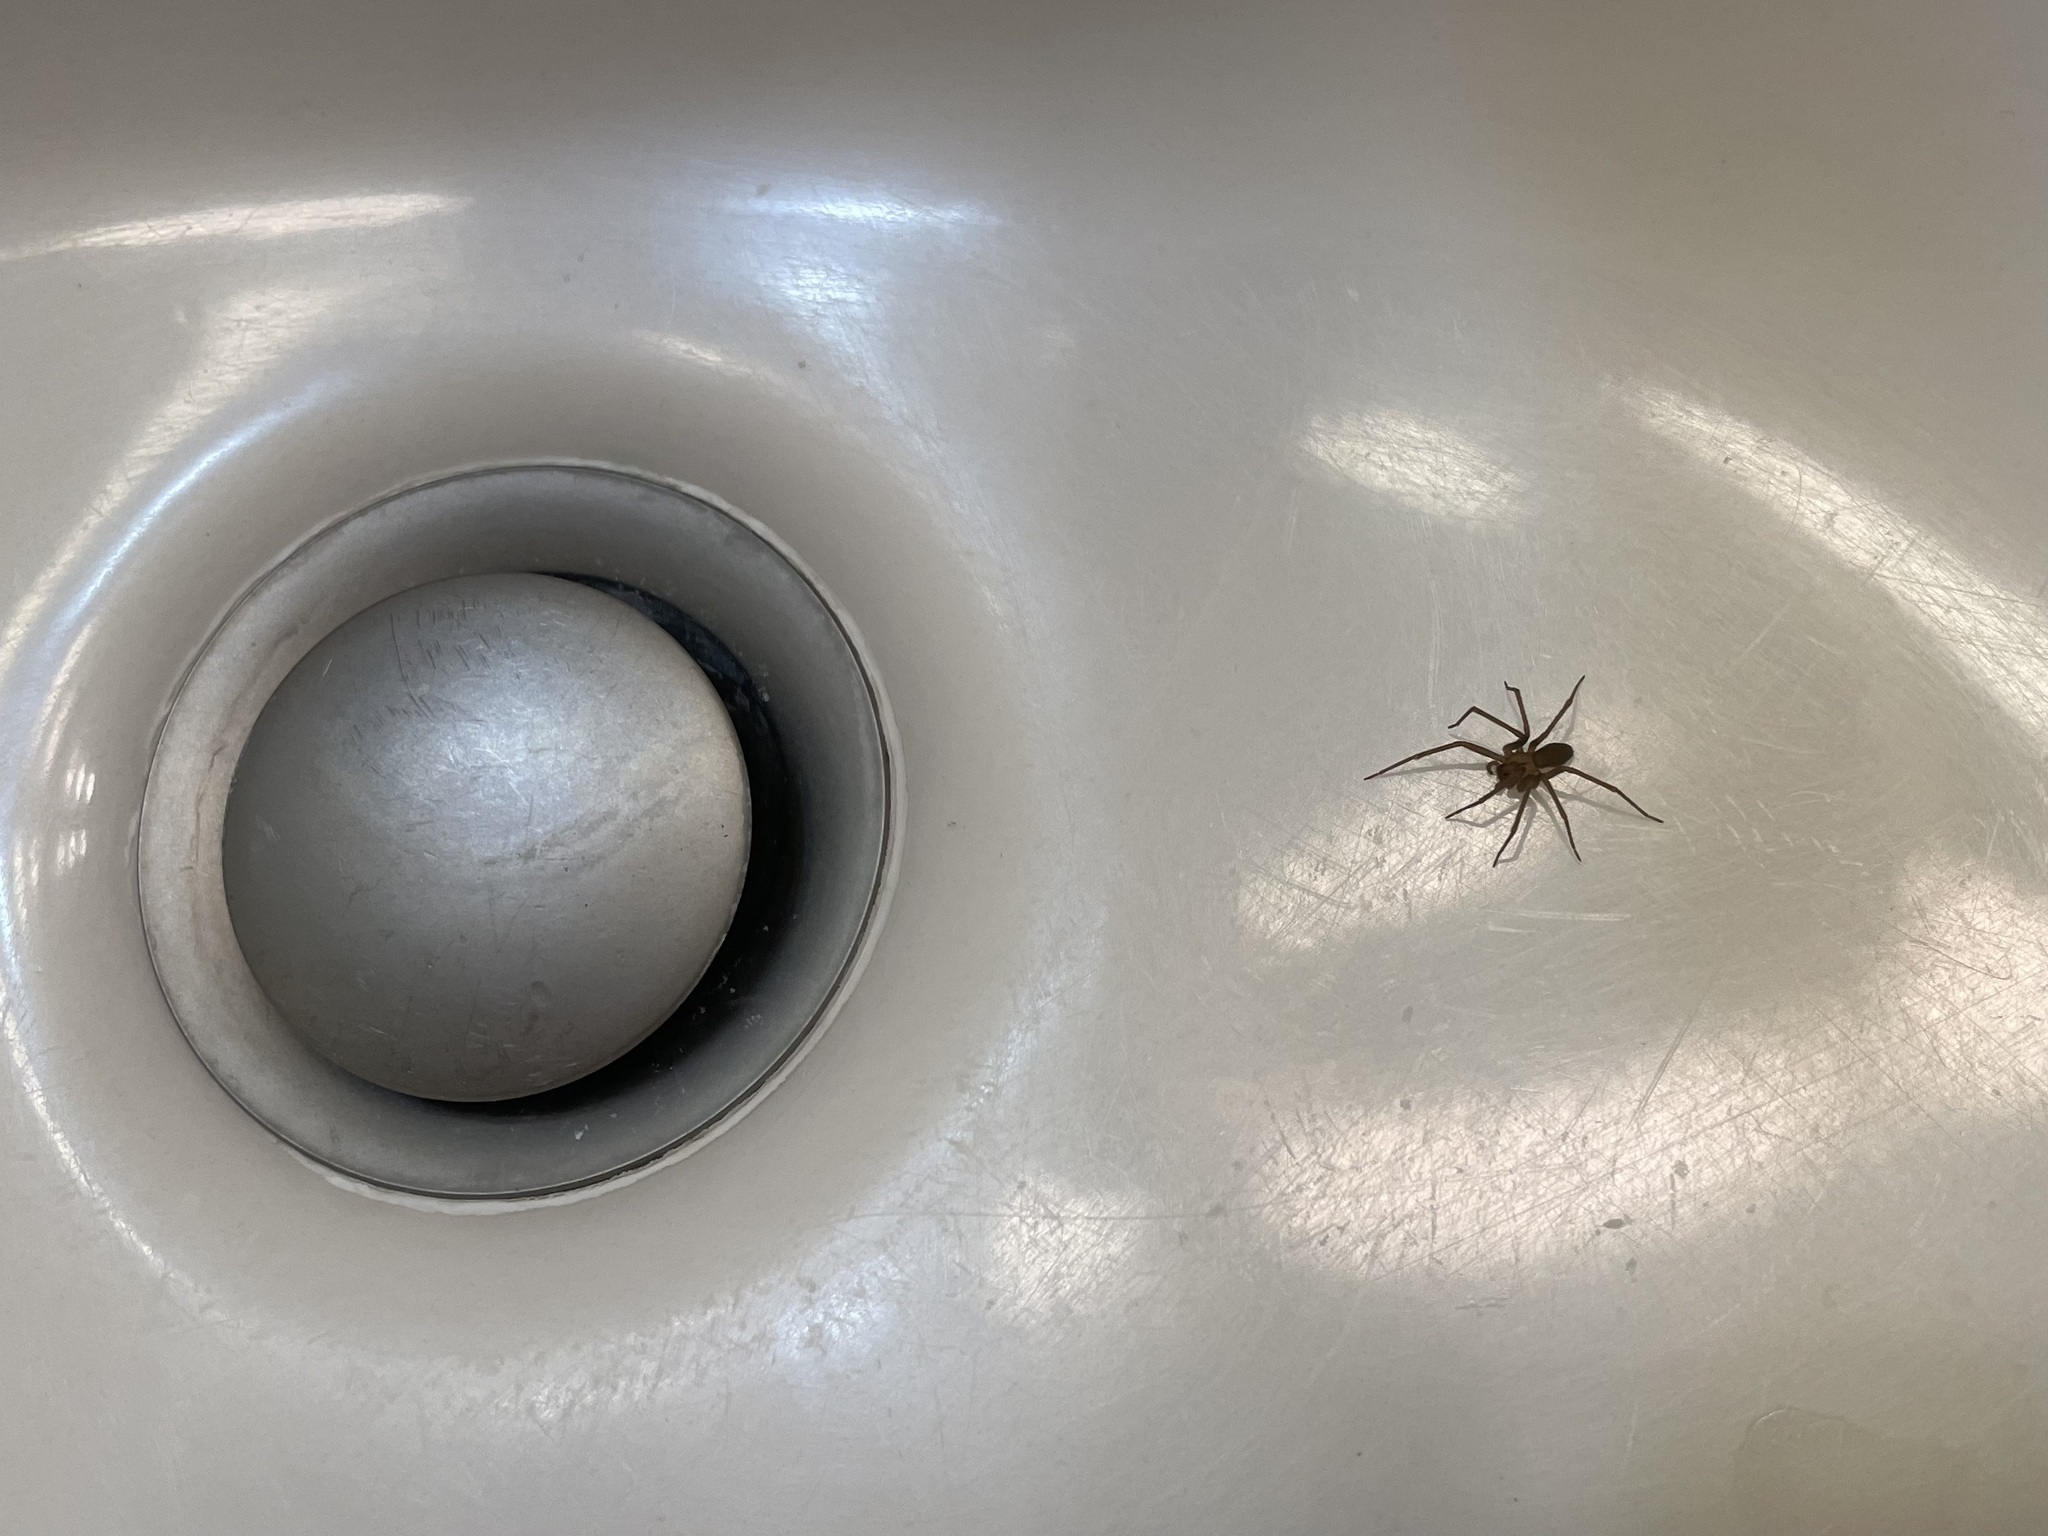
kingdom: Animalia
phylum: Arthropoda
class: Arachnida
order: Araneae
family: Sicariidae
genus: Loxosceles
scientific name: Loxosceles reclusa
